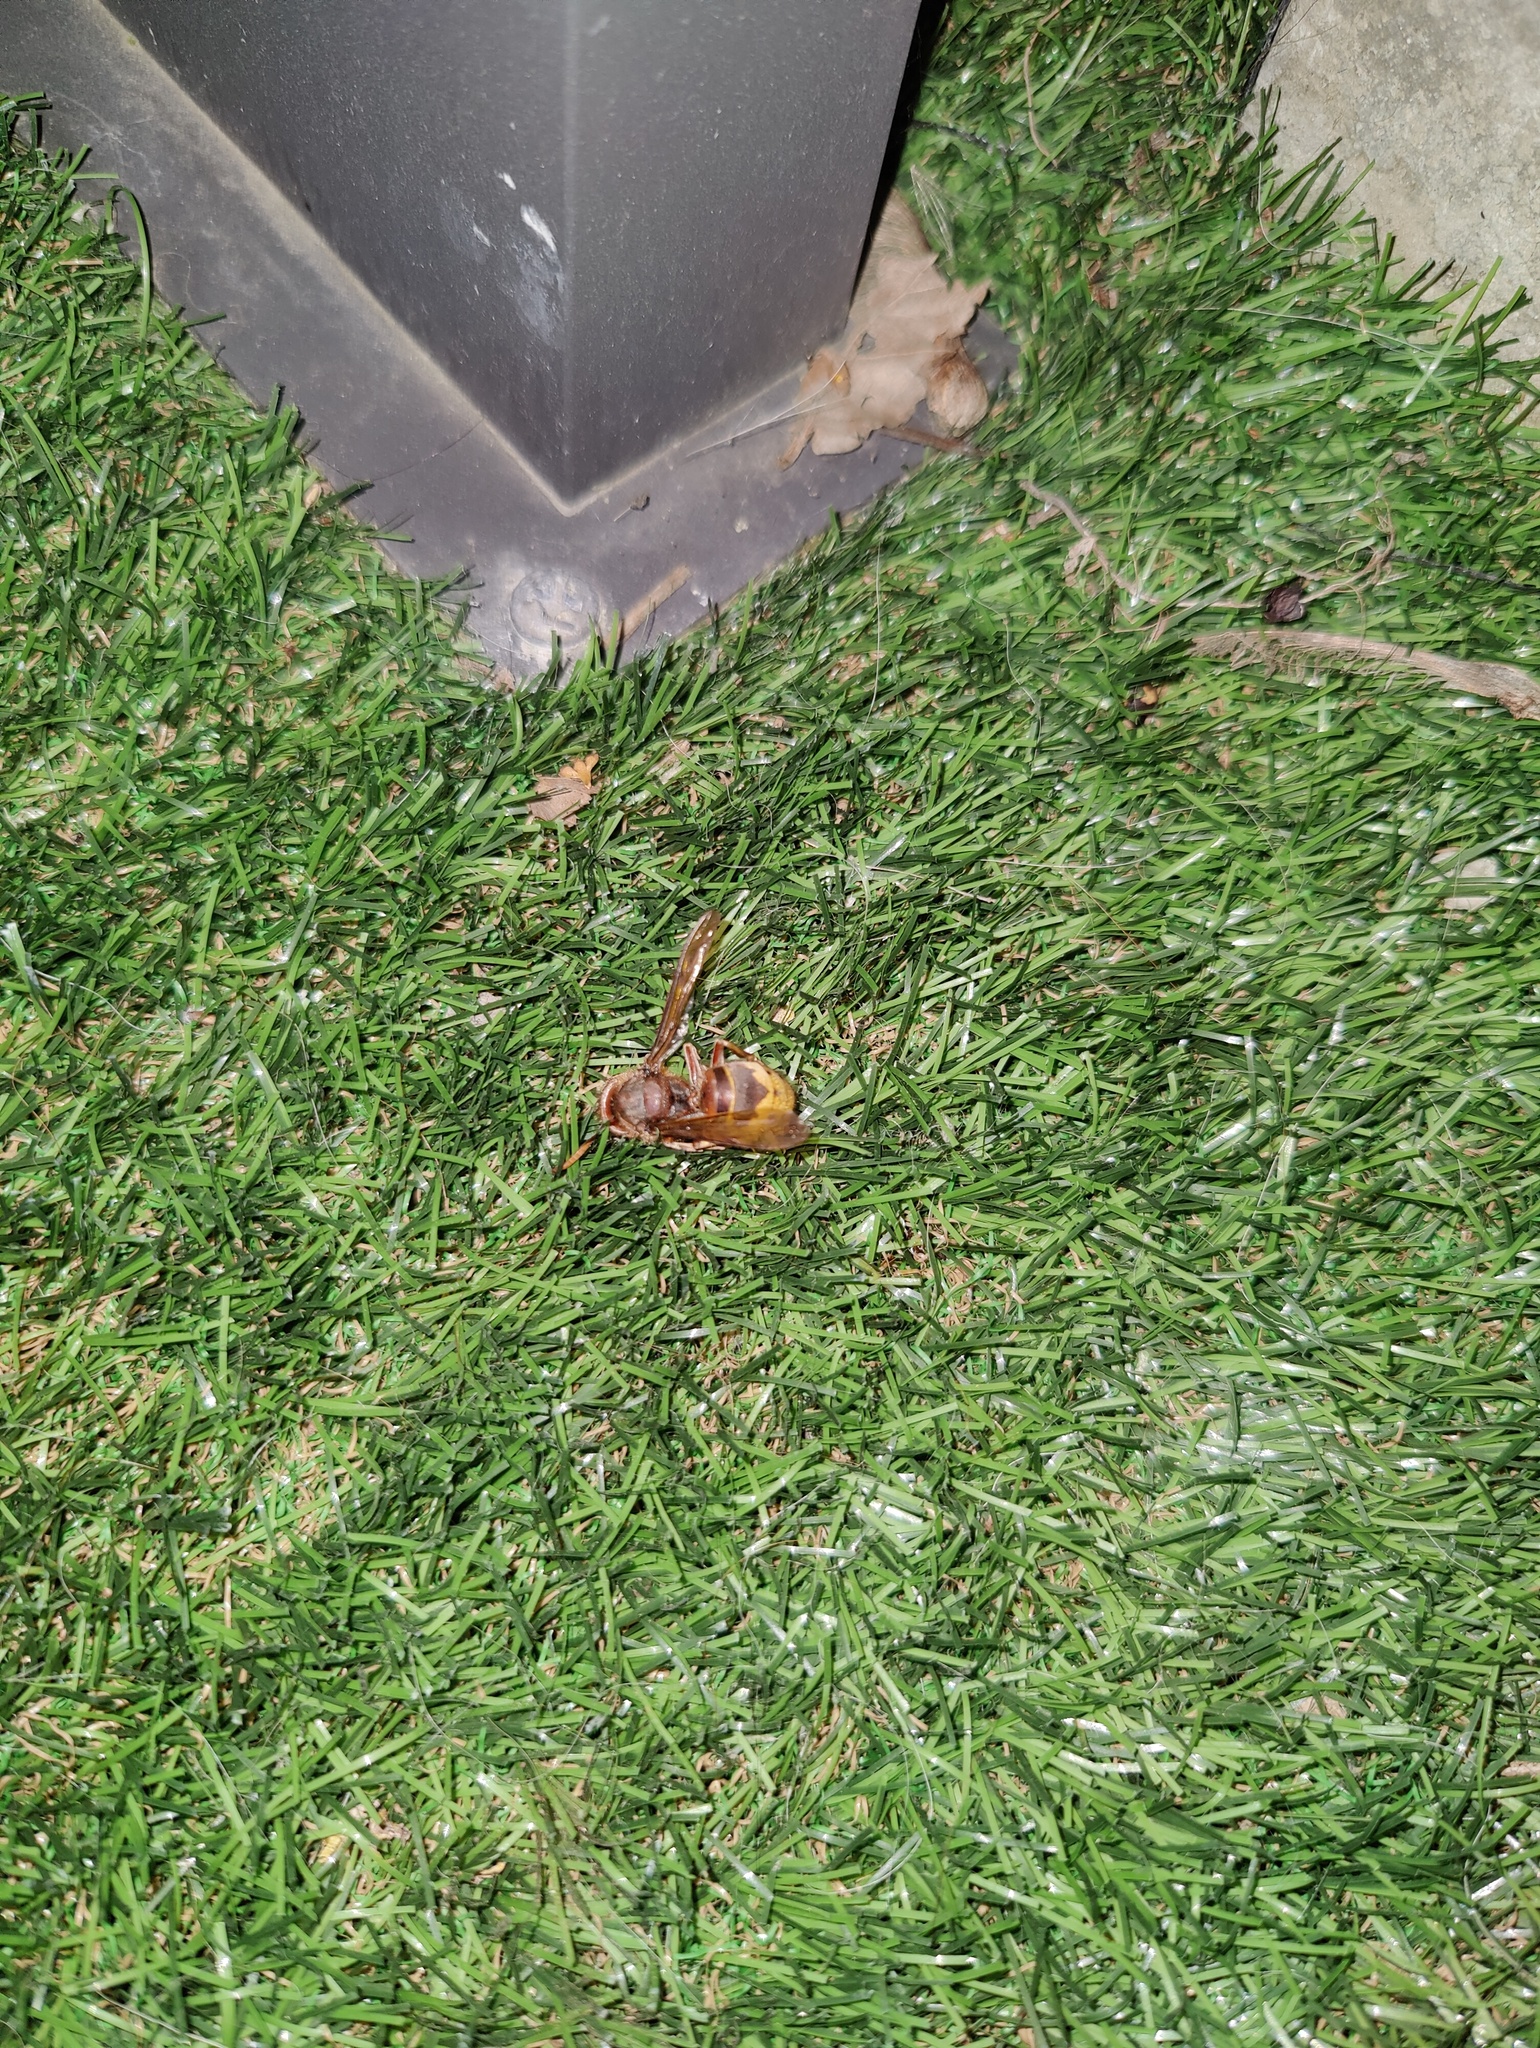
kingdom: Animalia
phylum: Arthropoda
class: Insecta
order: Hymenoptera
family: Vespidae
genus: Vespa
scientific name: Vespa crabro
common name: Hornet
